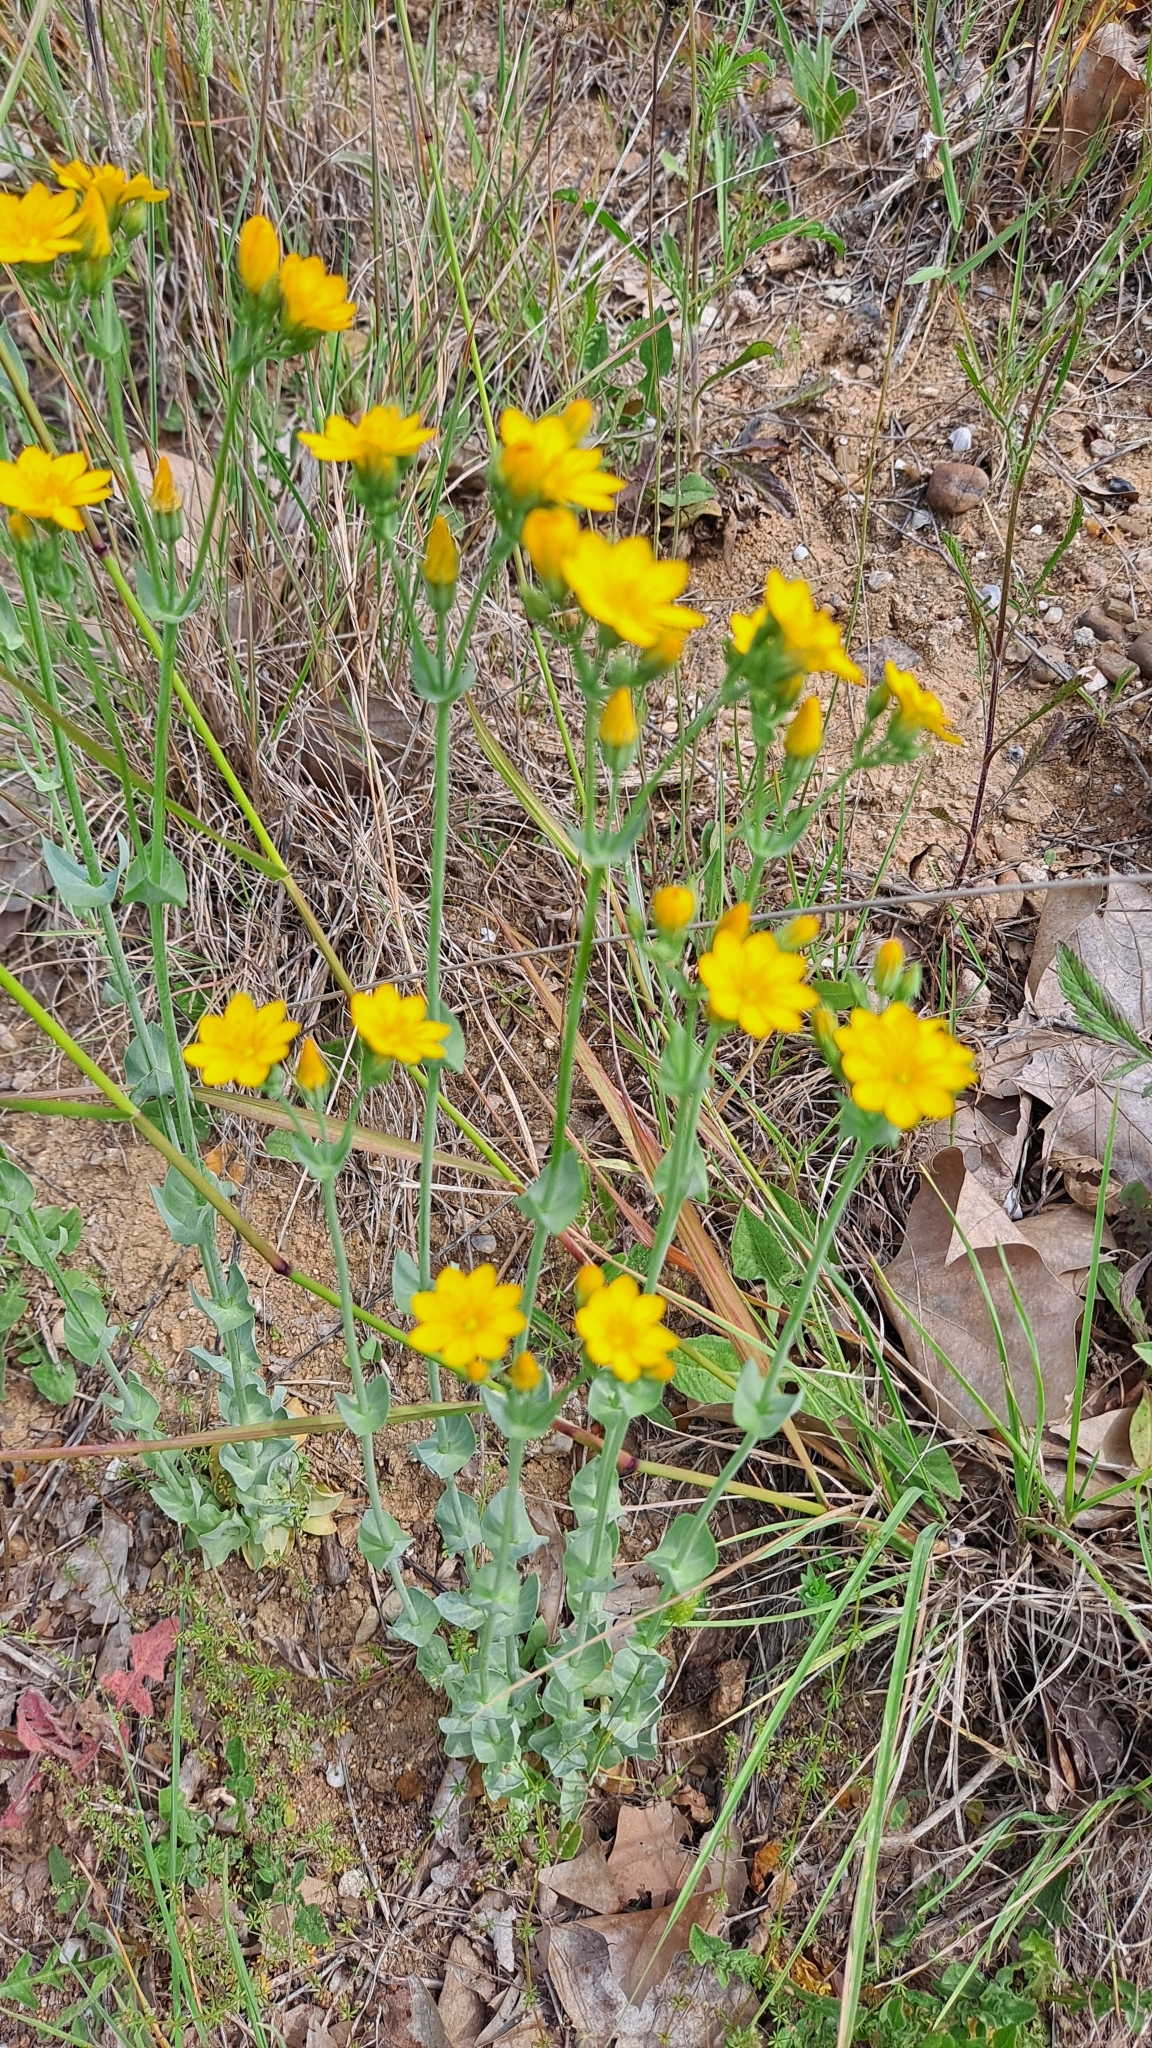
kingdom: Plantae
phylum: Tracheophyta
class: Magnoliopsida
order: Gentianales
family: Gentianaceae
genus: Blackstonia
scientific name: Blackstonia perfoliata
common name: Yellow-wort
